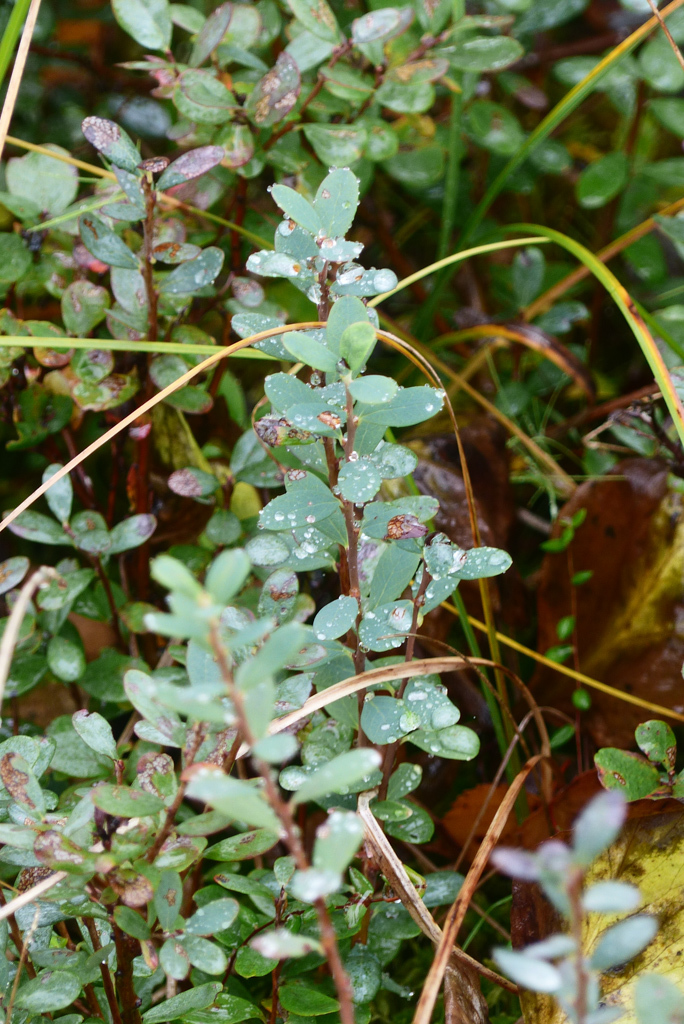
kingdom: Plantae
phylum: Tracheophyta
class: Magnoliopsida
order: Ericales
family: Ericaceae
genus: Vaccinium
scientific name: Vaccinium uliginosum
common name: Bog bilberry
